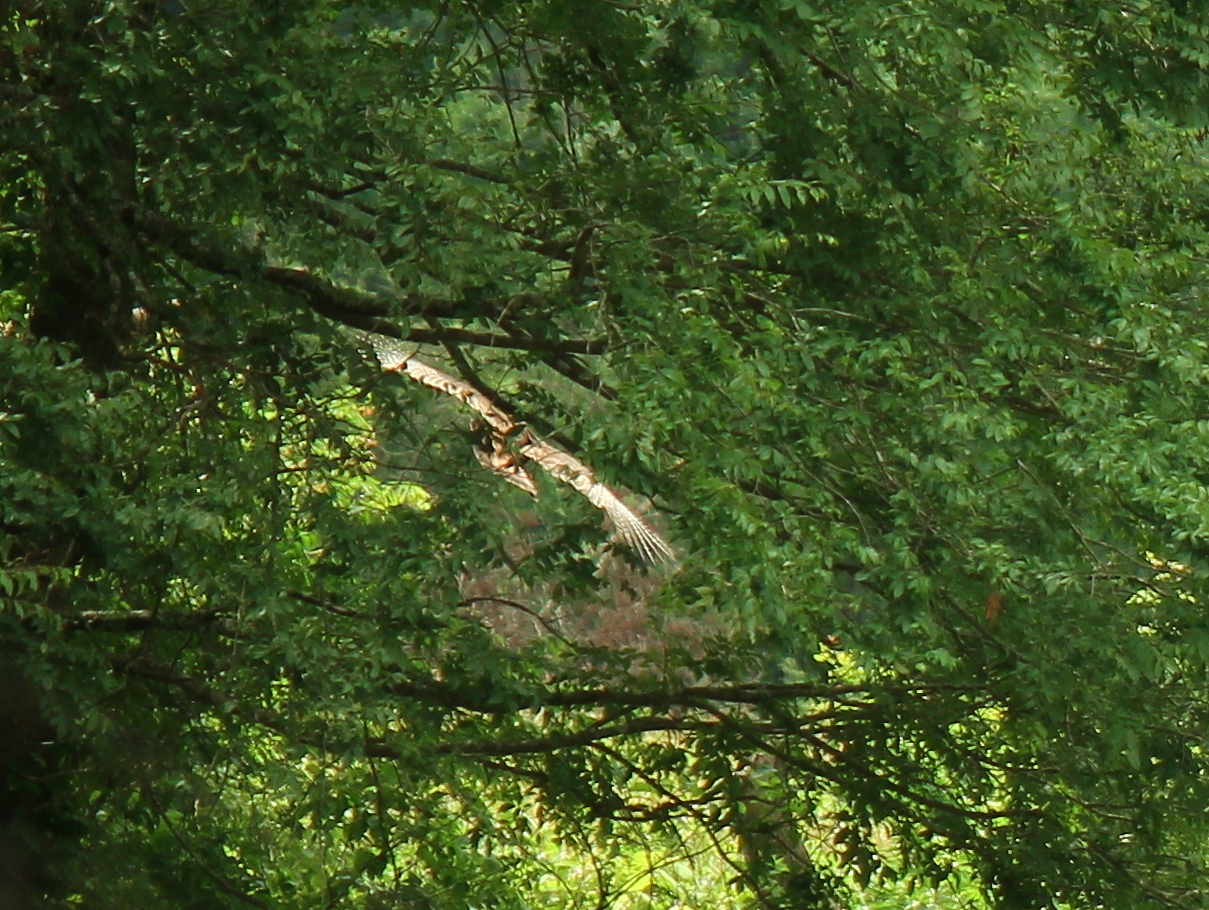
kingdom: Animalia
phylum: Chordata
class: Aves
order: Galliformes
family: Phasianidae
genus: Meleagris
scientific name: Meleagris gallopavo
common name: Wild turkey
